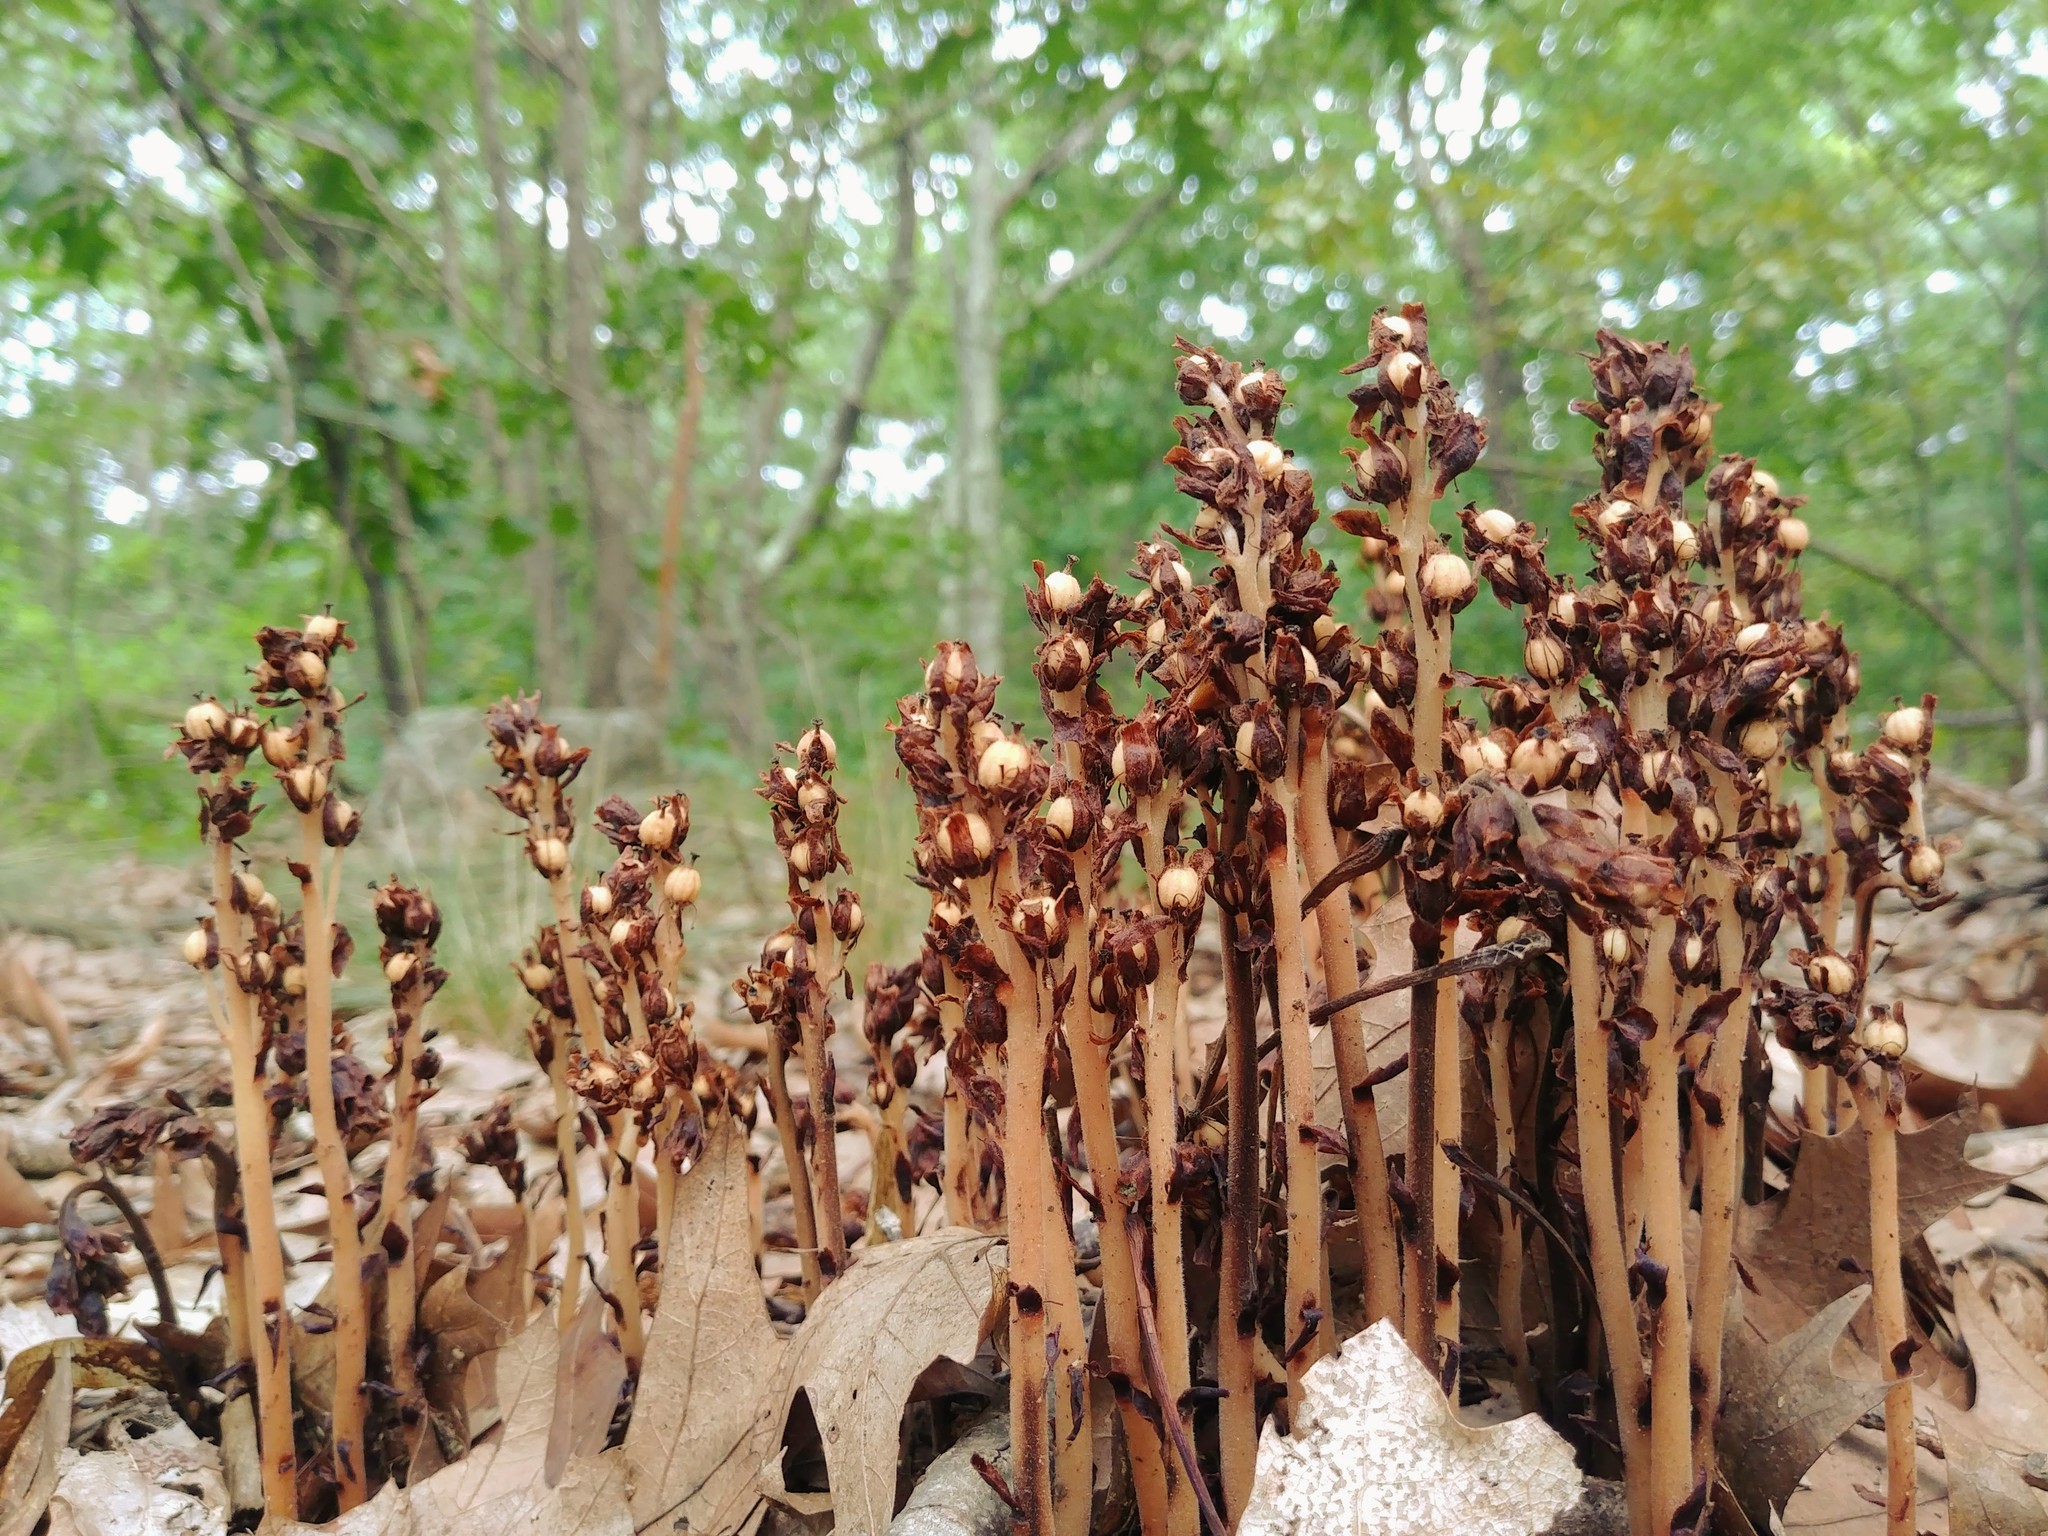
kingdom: Plantae
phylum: Tracheophyta
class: Magnoliopsida
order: Ericales
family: Ericaceae
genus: Hypopitys
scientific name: Hypopitys monotropa
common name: Yellow bird's-nest
